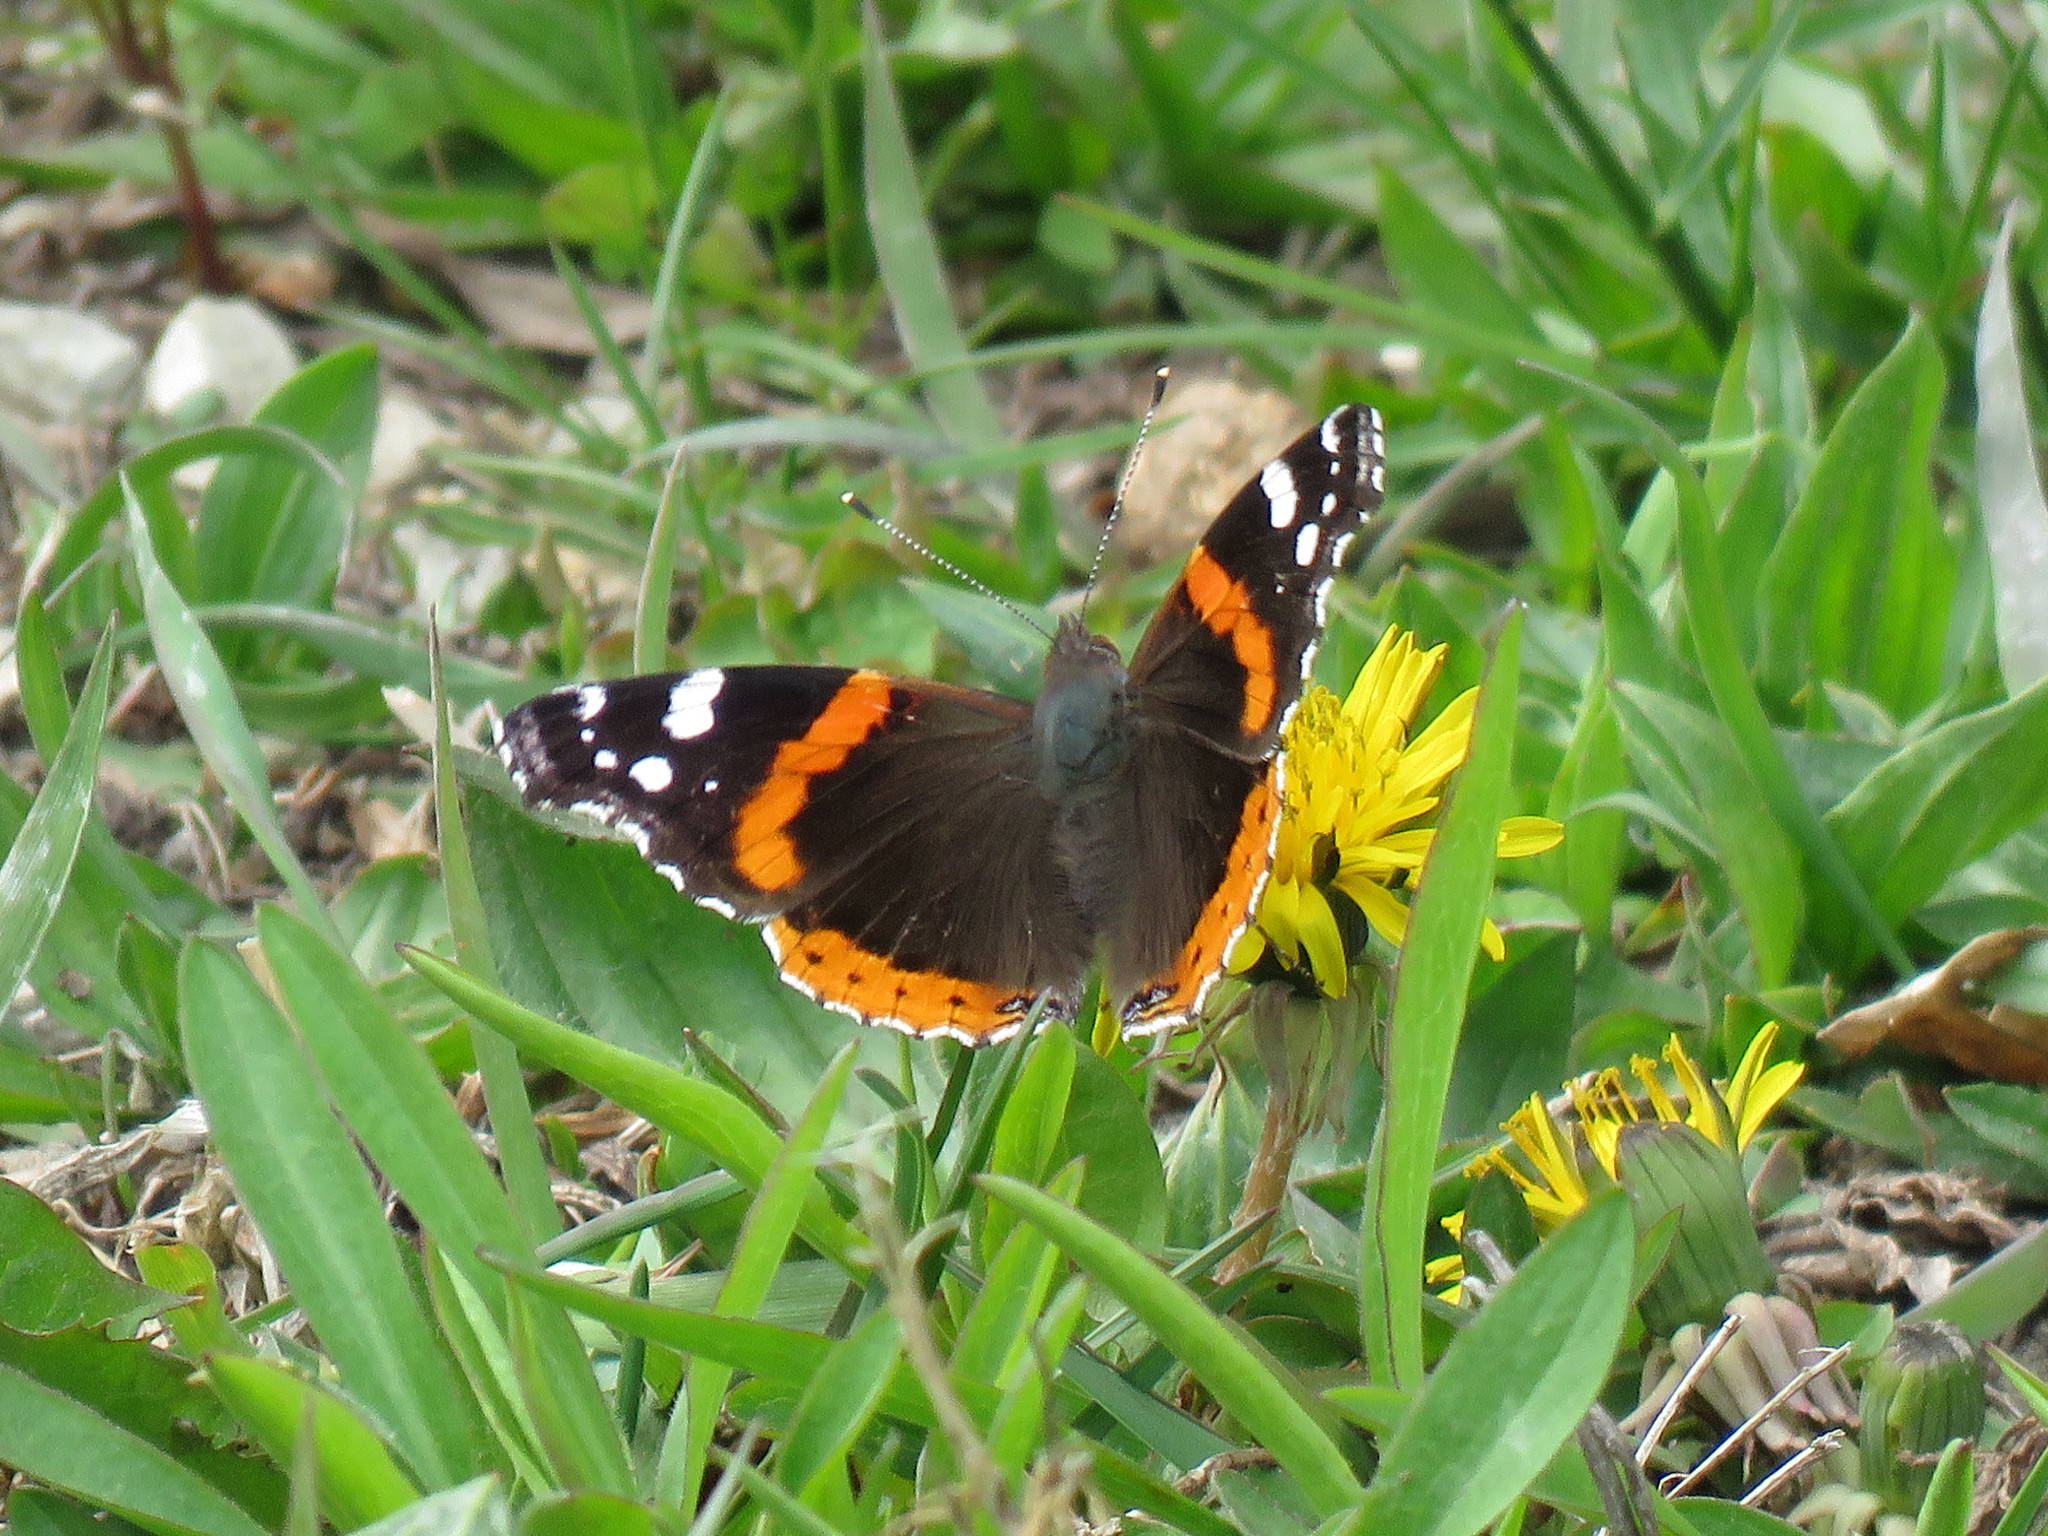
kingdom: Animalia
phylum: Arthropoda
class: Insecta
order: Lepidoptera
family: Nymphalidae
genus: Vanessa
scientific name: Vanessa atalanta
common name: Red admiral
